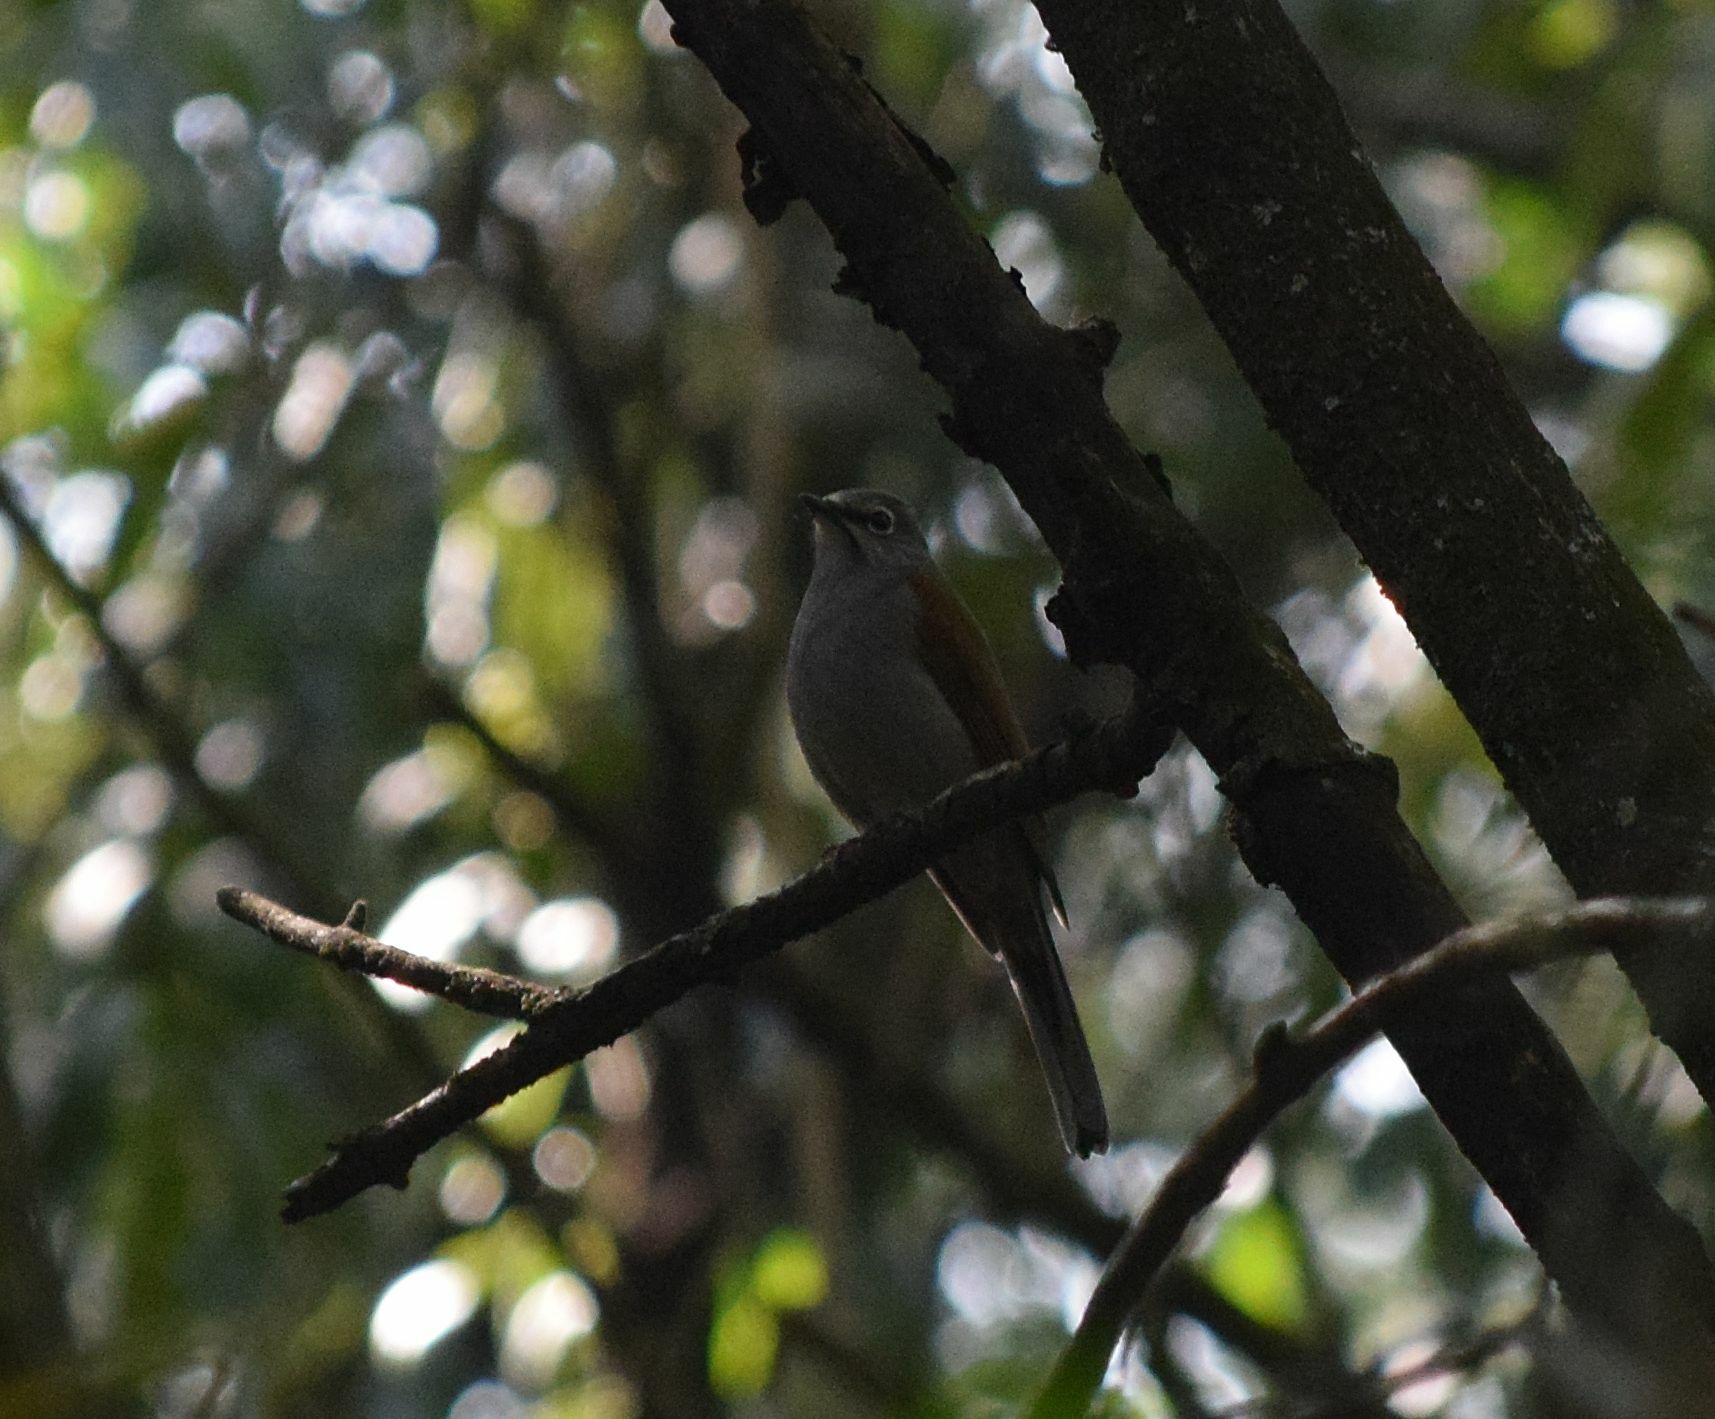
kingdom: Animalia
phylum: Chordata
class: Aves
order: Passeriformes
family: Turdidae
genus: Myadestes
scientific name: Myadestes occidentalis
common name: Brown-backed solitaire
